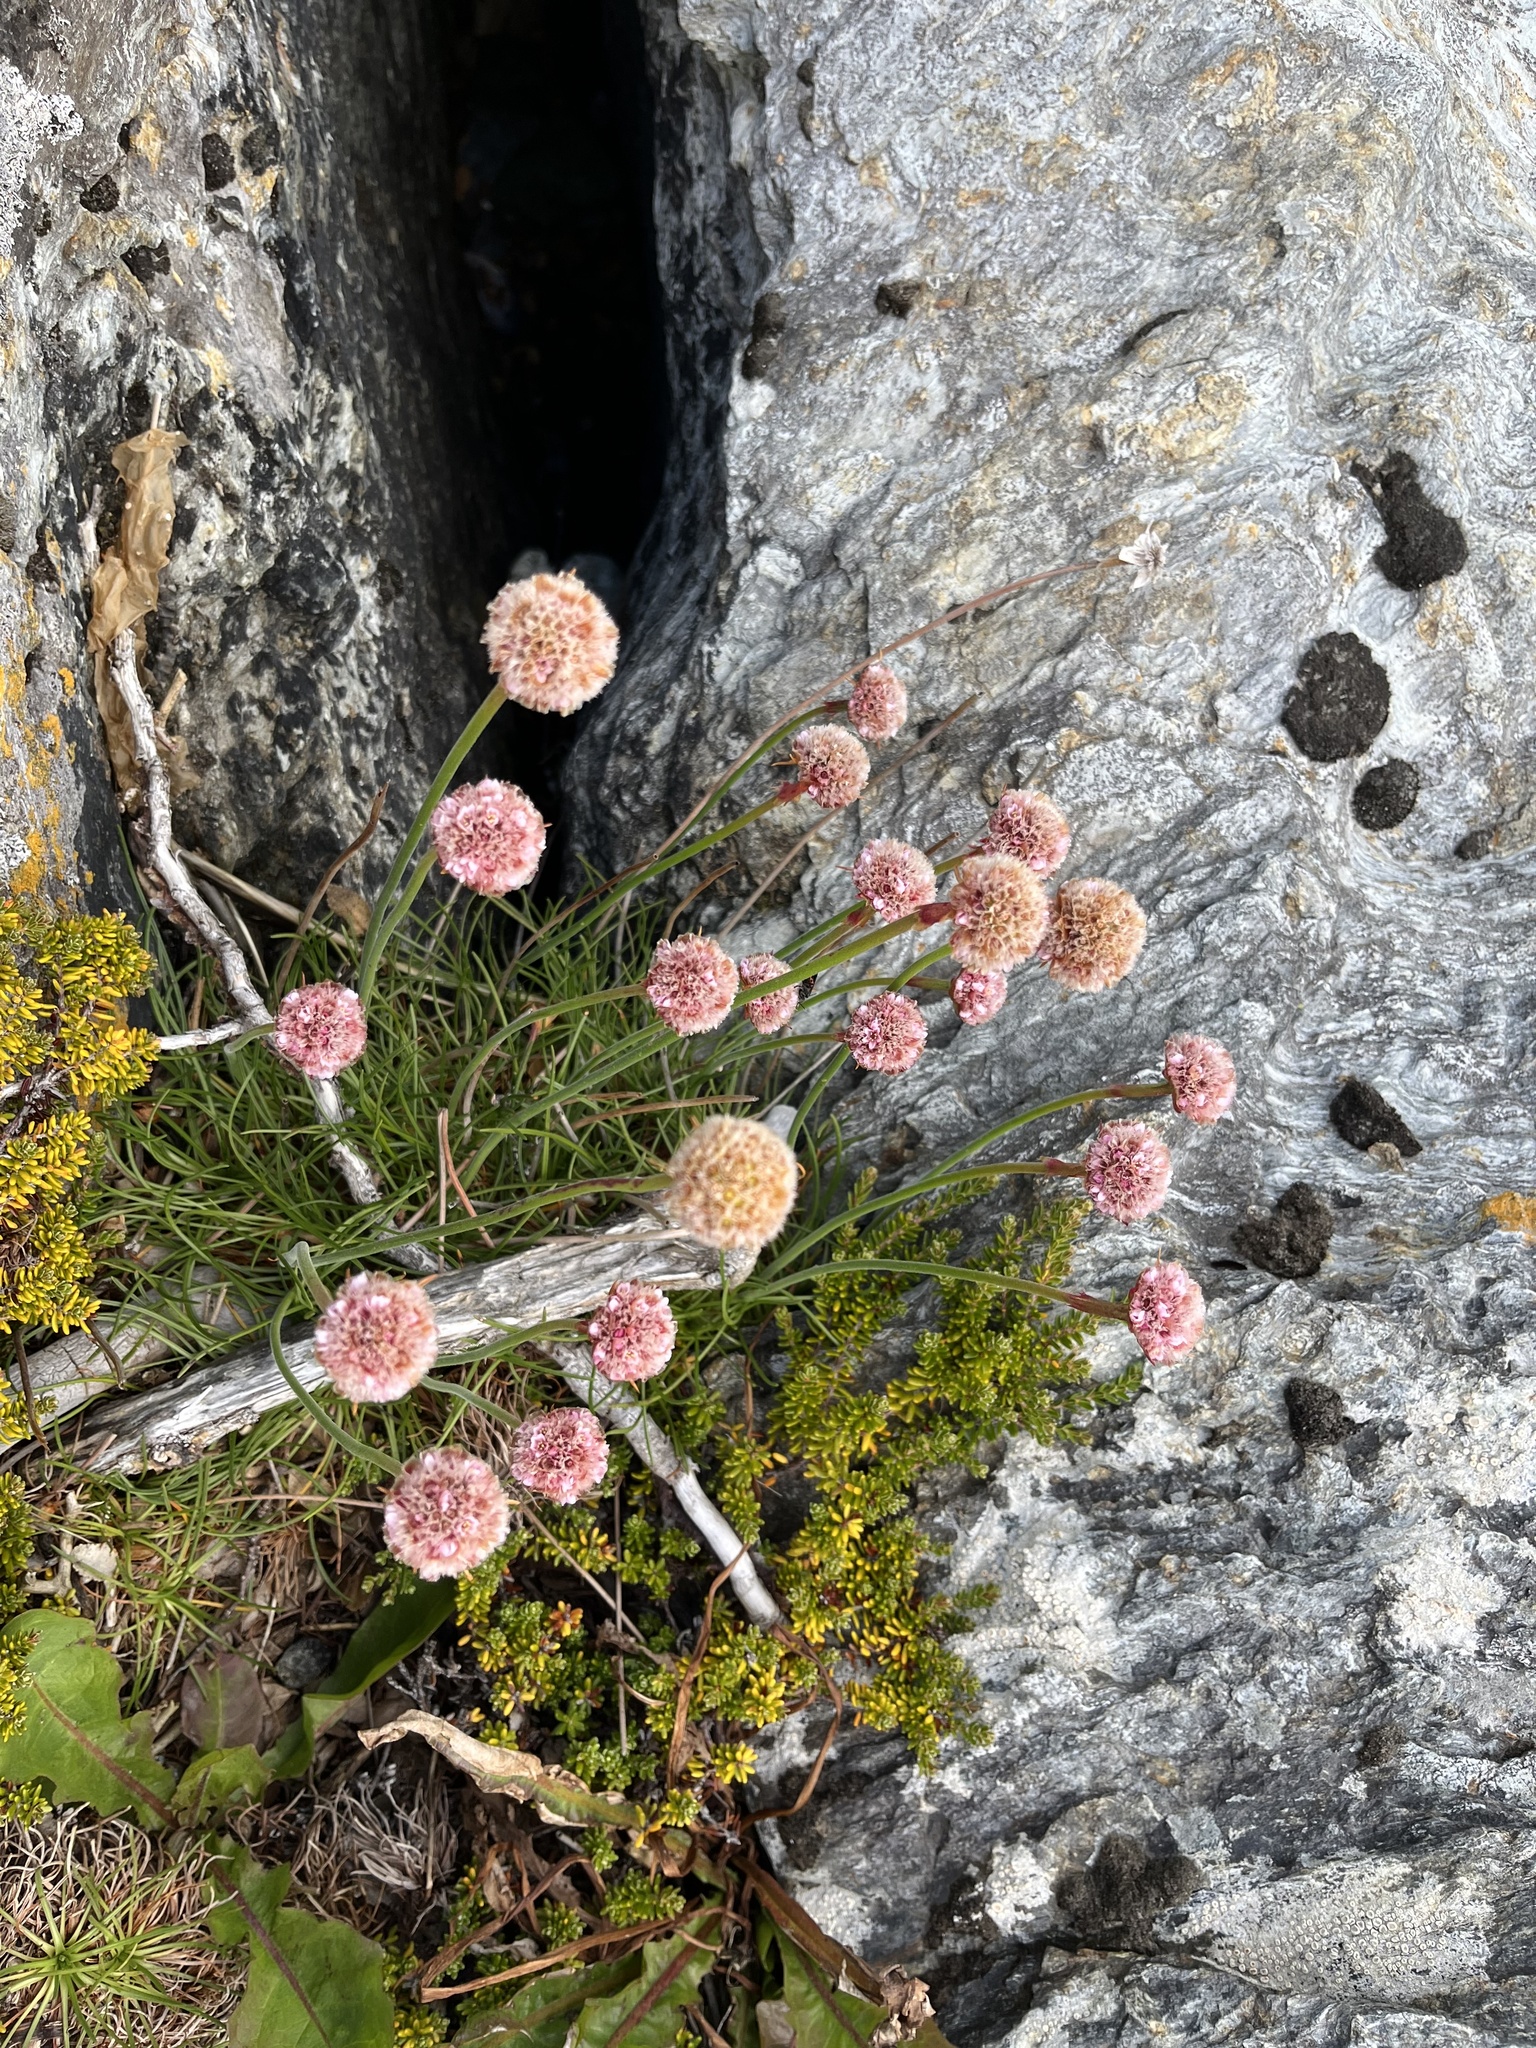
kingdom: Plantae
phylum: Tracheophyta
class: Magnoliopsida
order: Caryophyllales
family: Plumbaginaceae
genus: Armeria
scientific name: Armeria curvifolia
